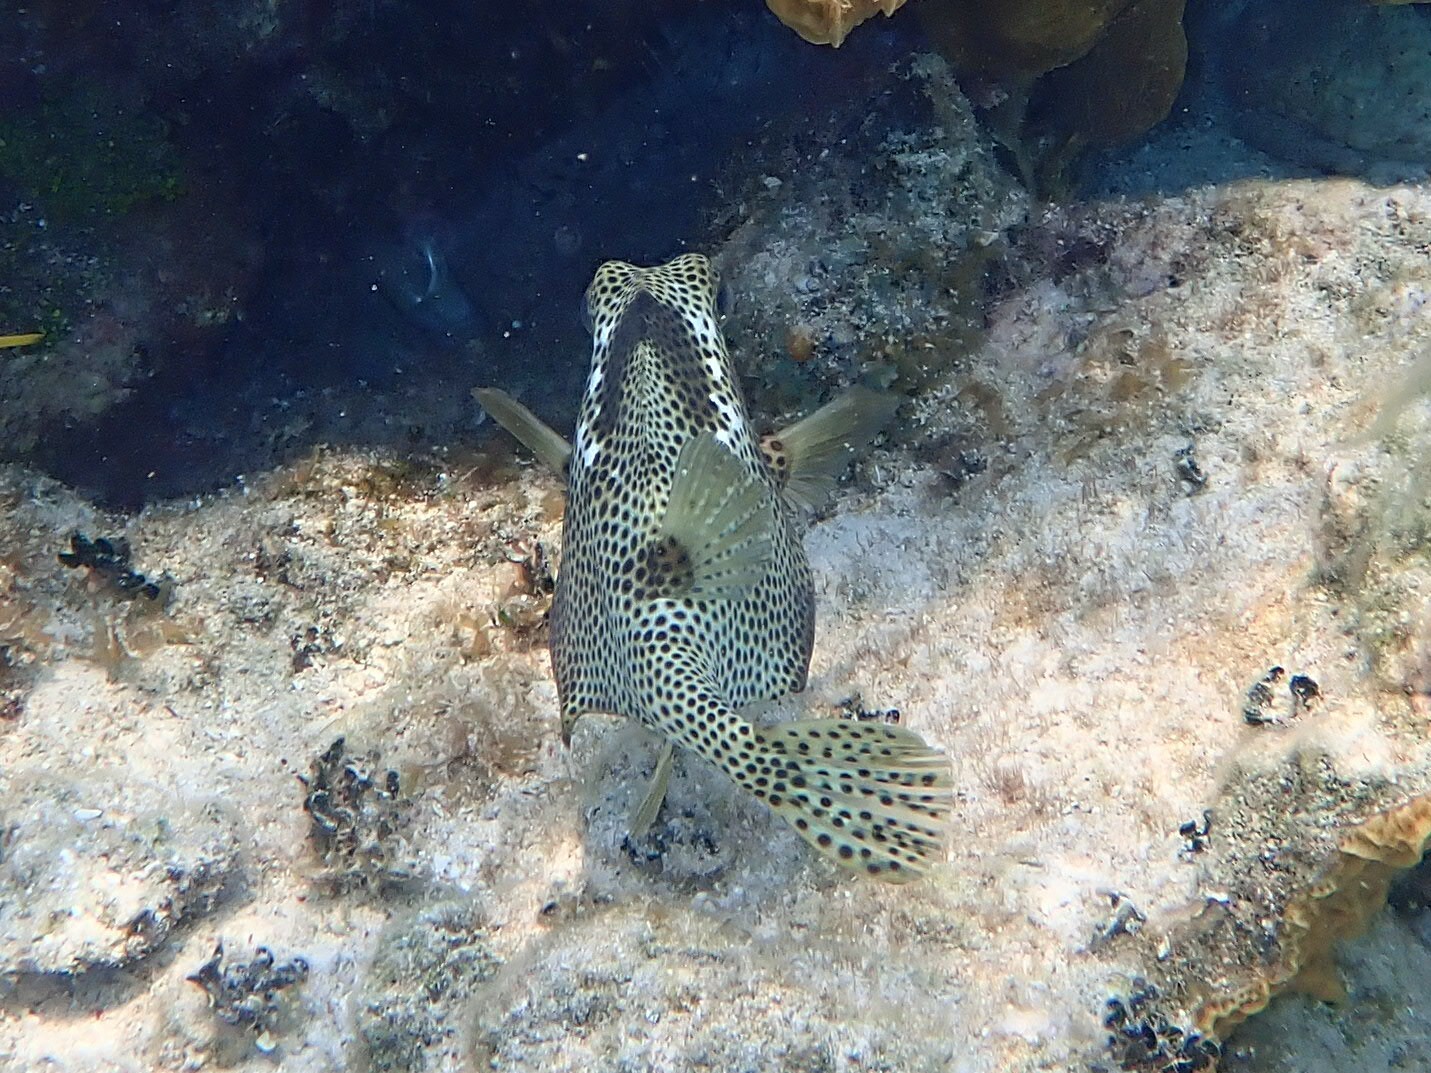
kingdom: Animalia
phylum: Chordata
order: Tetraodontiformes
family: Ostraciidae
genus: Lactophrys
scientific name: Lactophrys bicaudalis
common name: Spotted trunkfish
